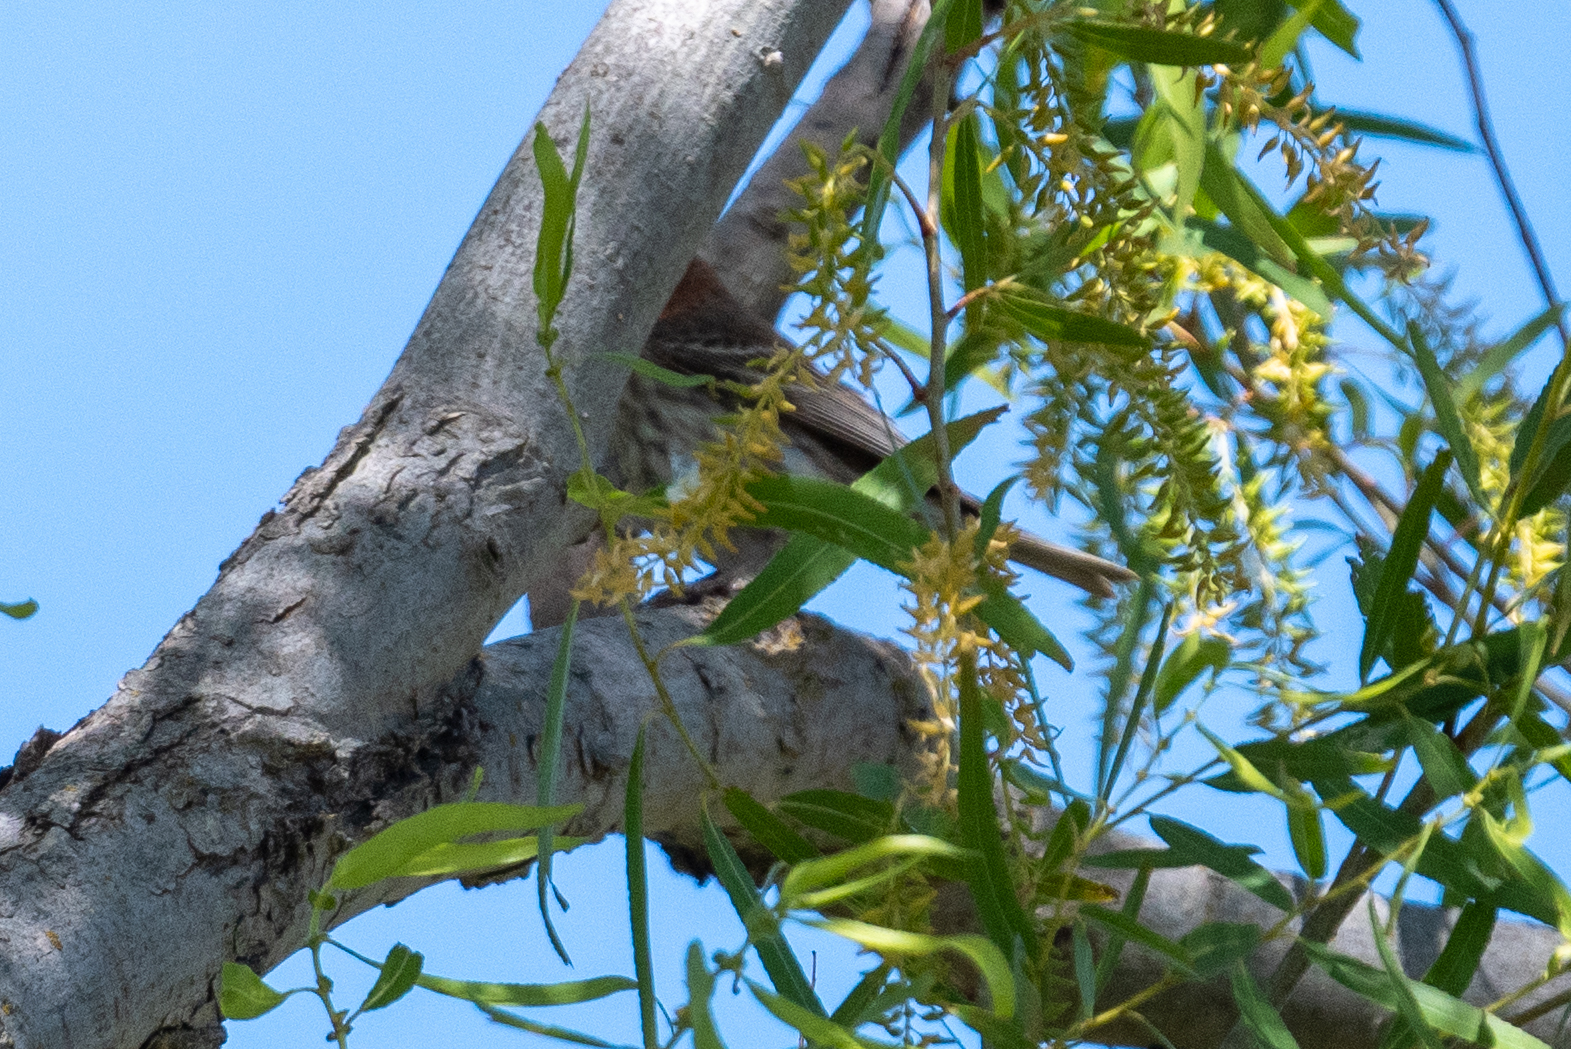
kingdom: Animalia
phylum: Chordata
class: Aves
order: Passeriformes
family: Fringillidae
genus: Haemorhous
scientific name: Haemorhous mexicanus
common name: House finch
